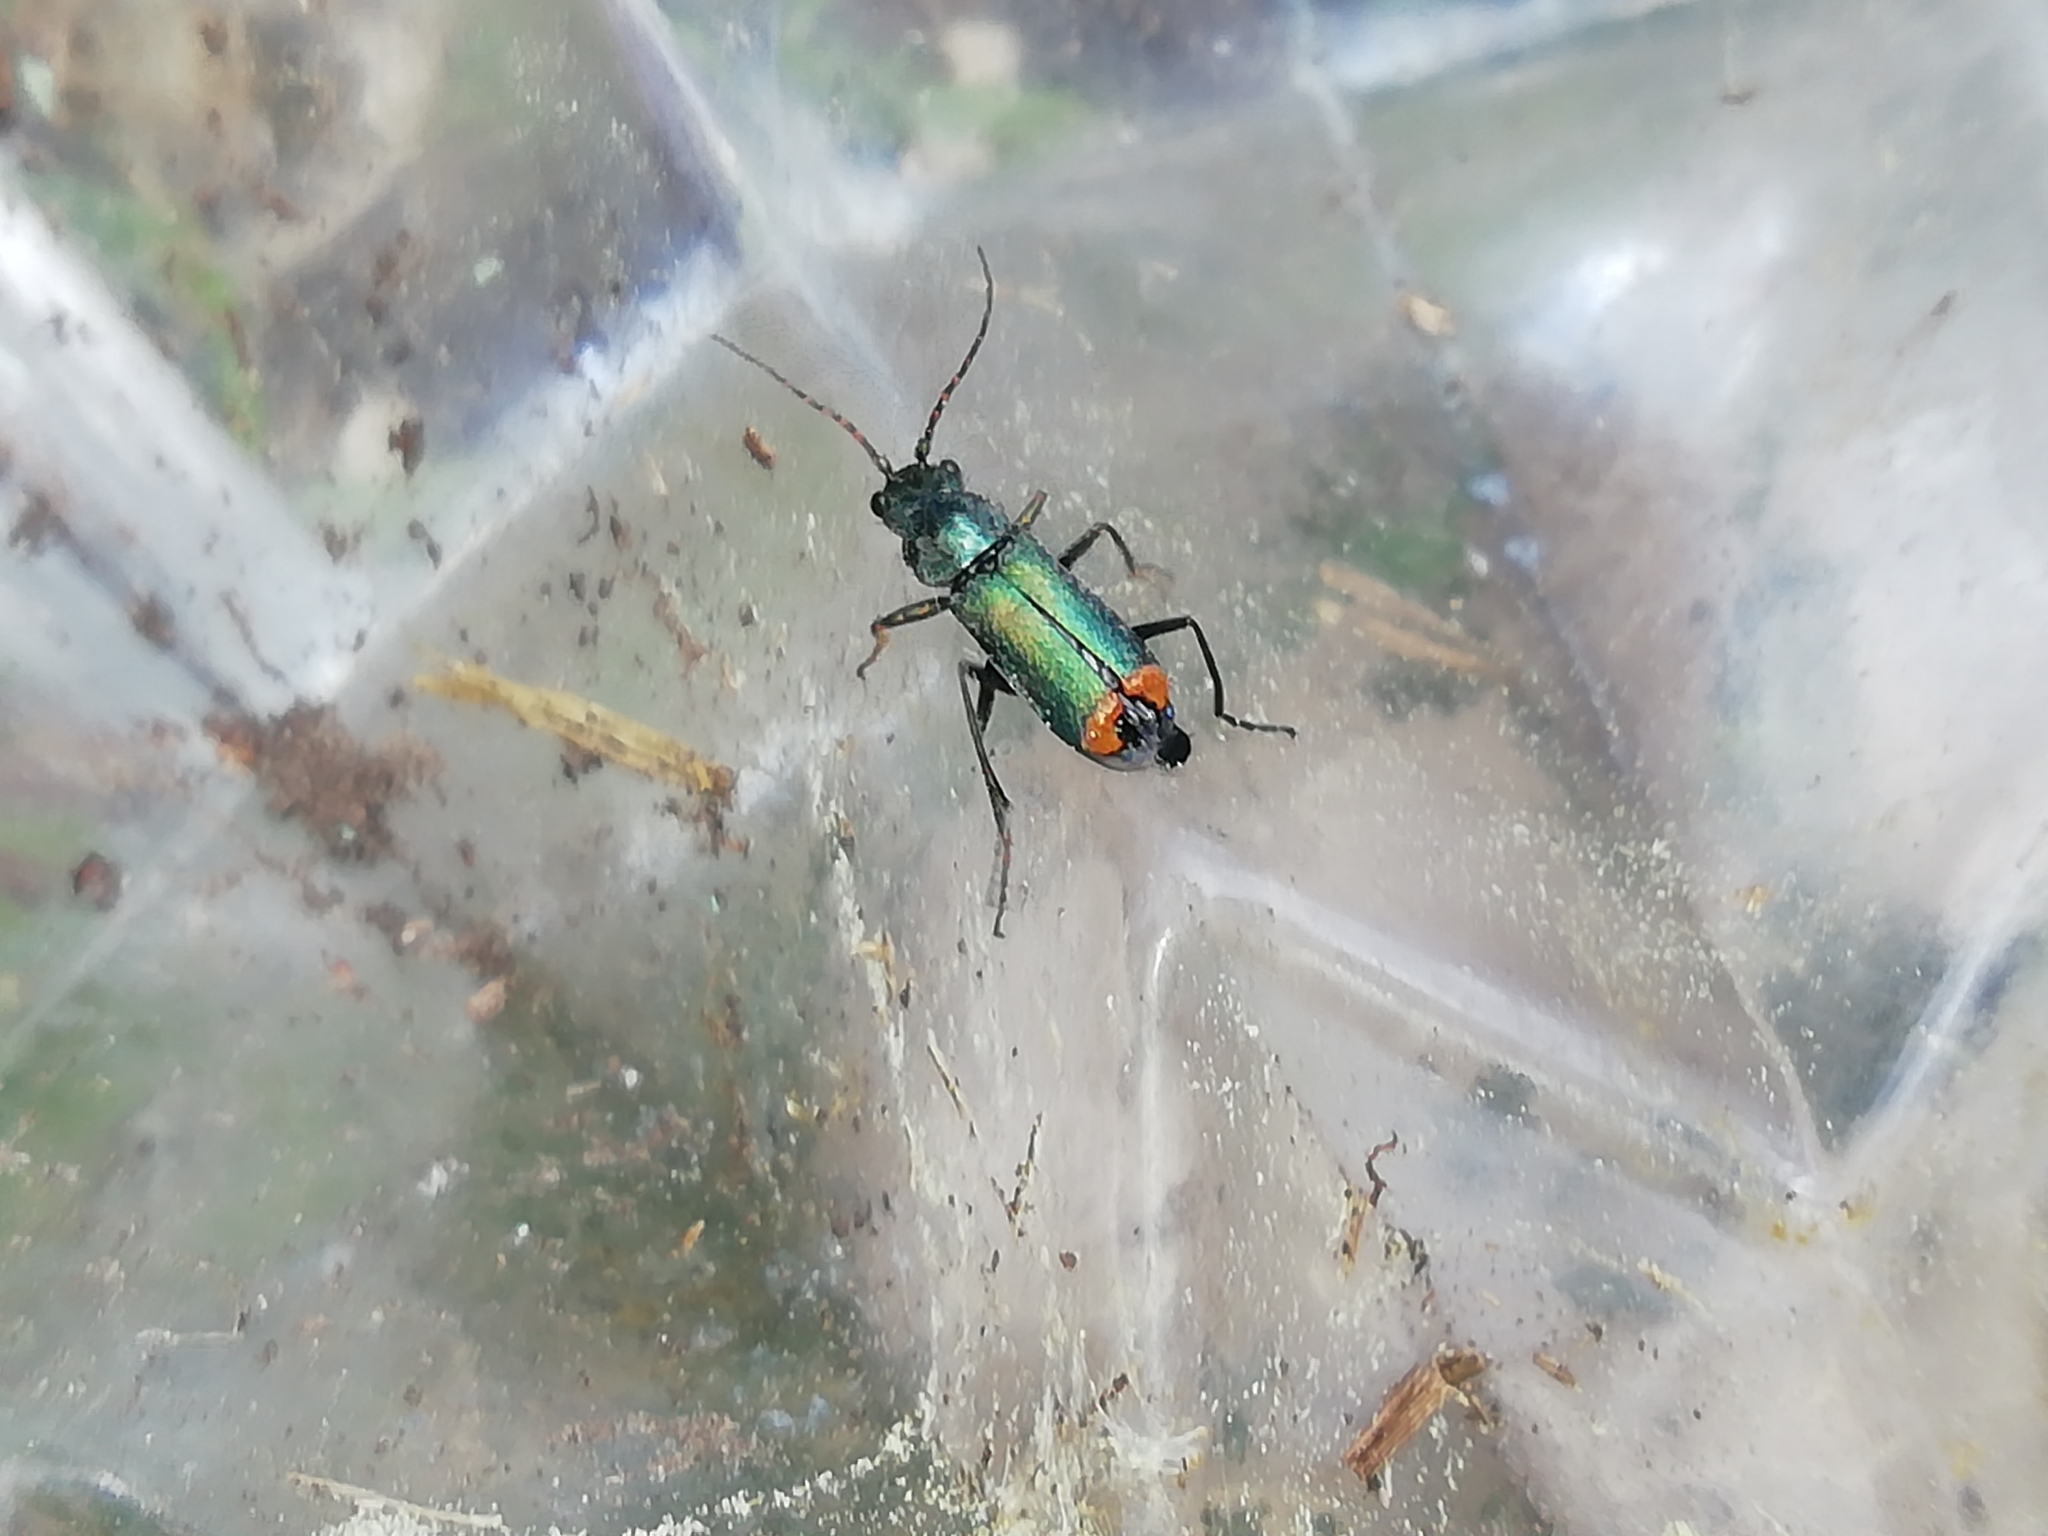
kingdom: Animalia
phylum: Arthropoda
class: Insecta
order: Coleoptera
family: Malachiidae
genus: Clanoptilus
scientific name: Clanoptilus geniculatus
